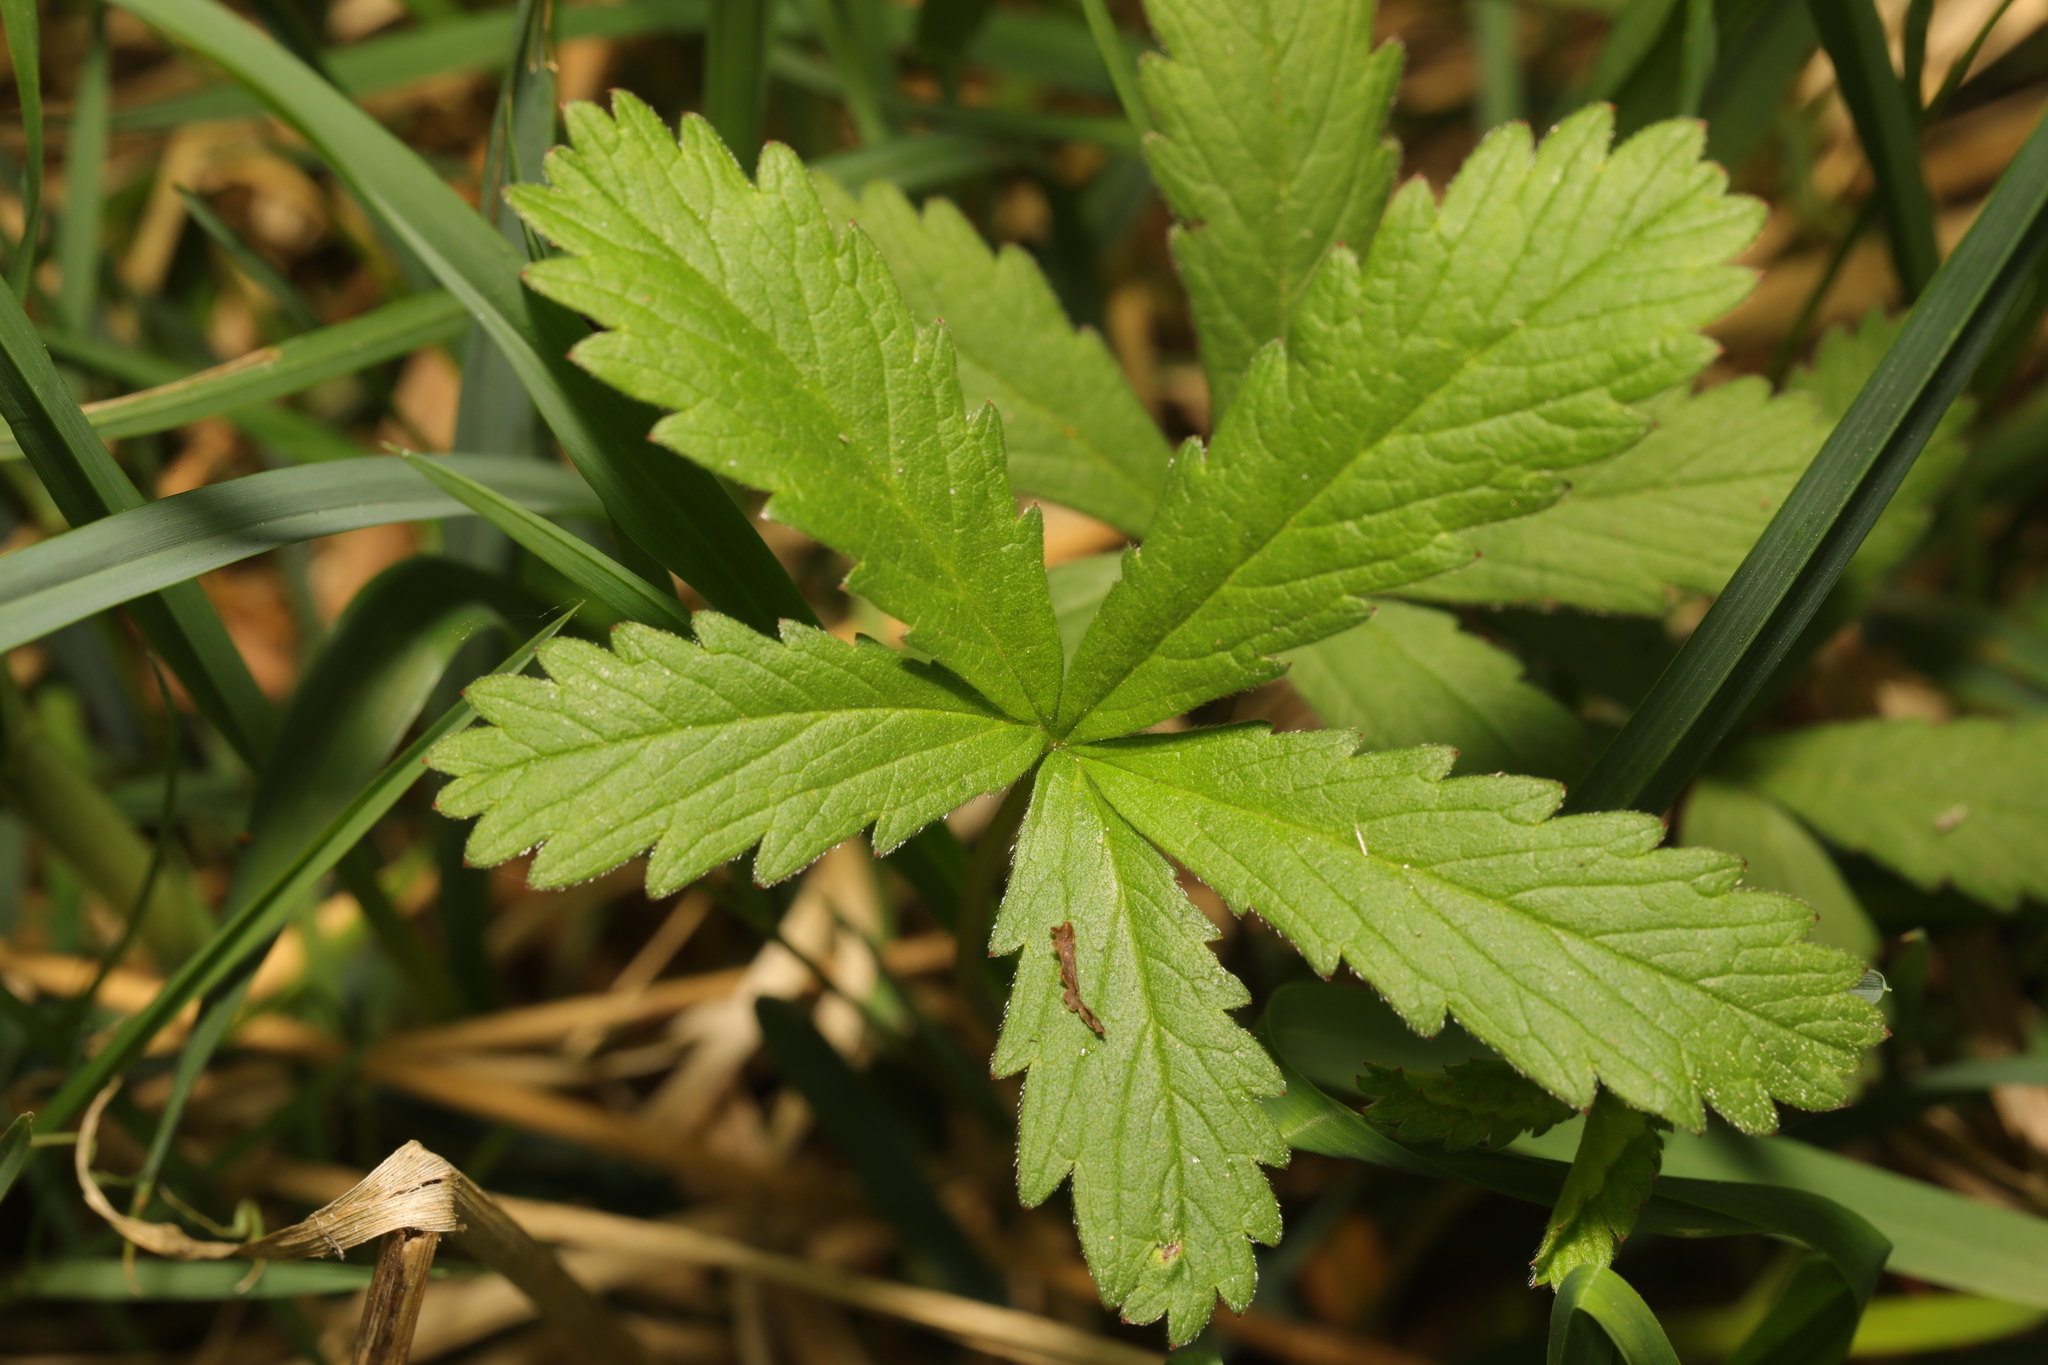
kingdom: Plantae
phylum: Tracheophyta
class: Magnoliopsida
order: Rosales
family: Rosaceae
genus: Potentilla
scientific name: Potentilla reptans
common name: Creeping cinquefoil
